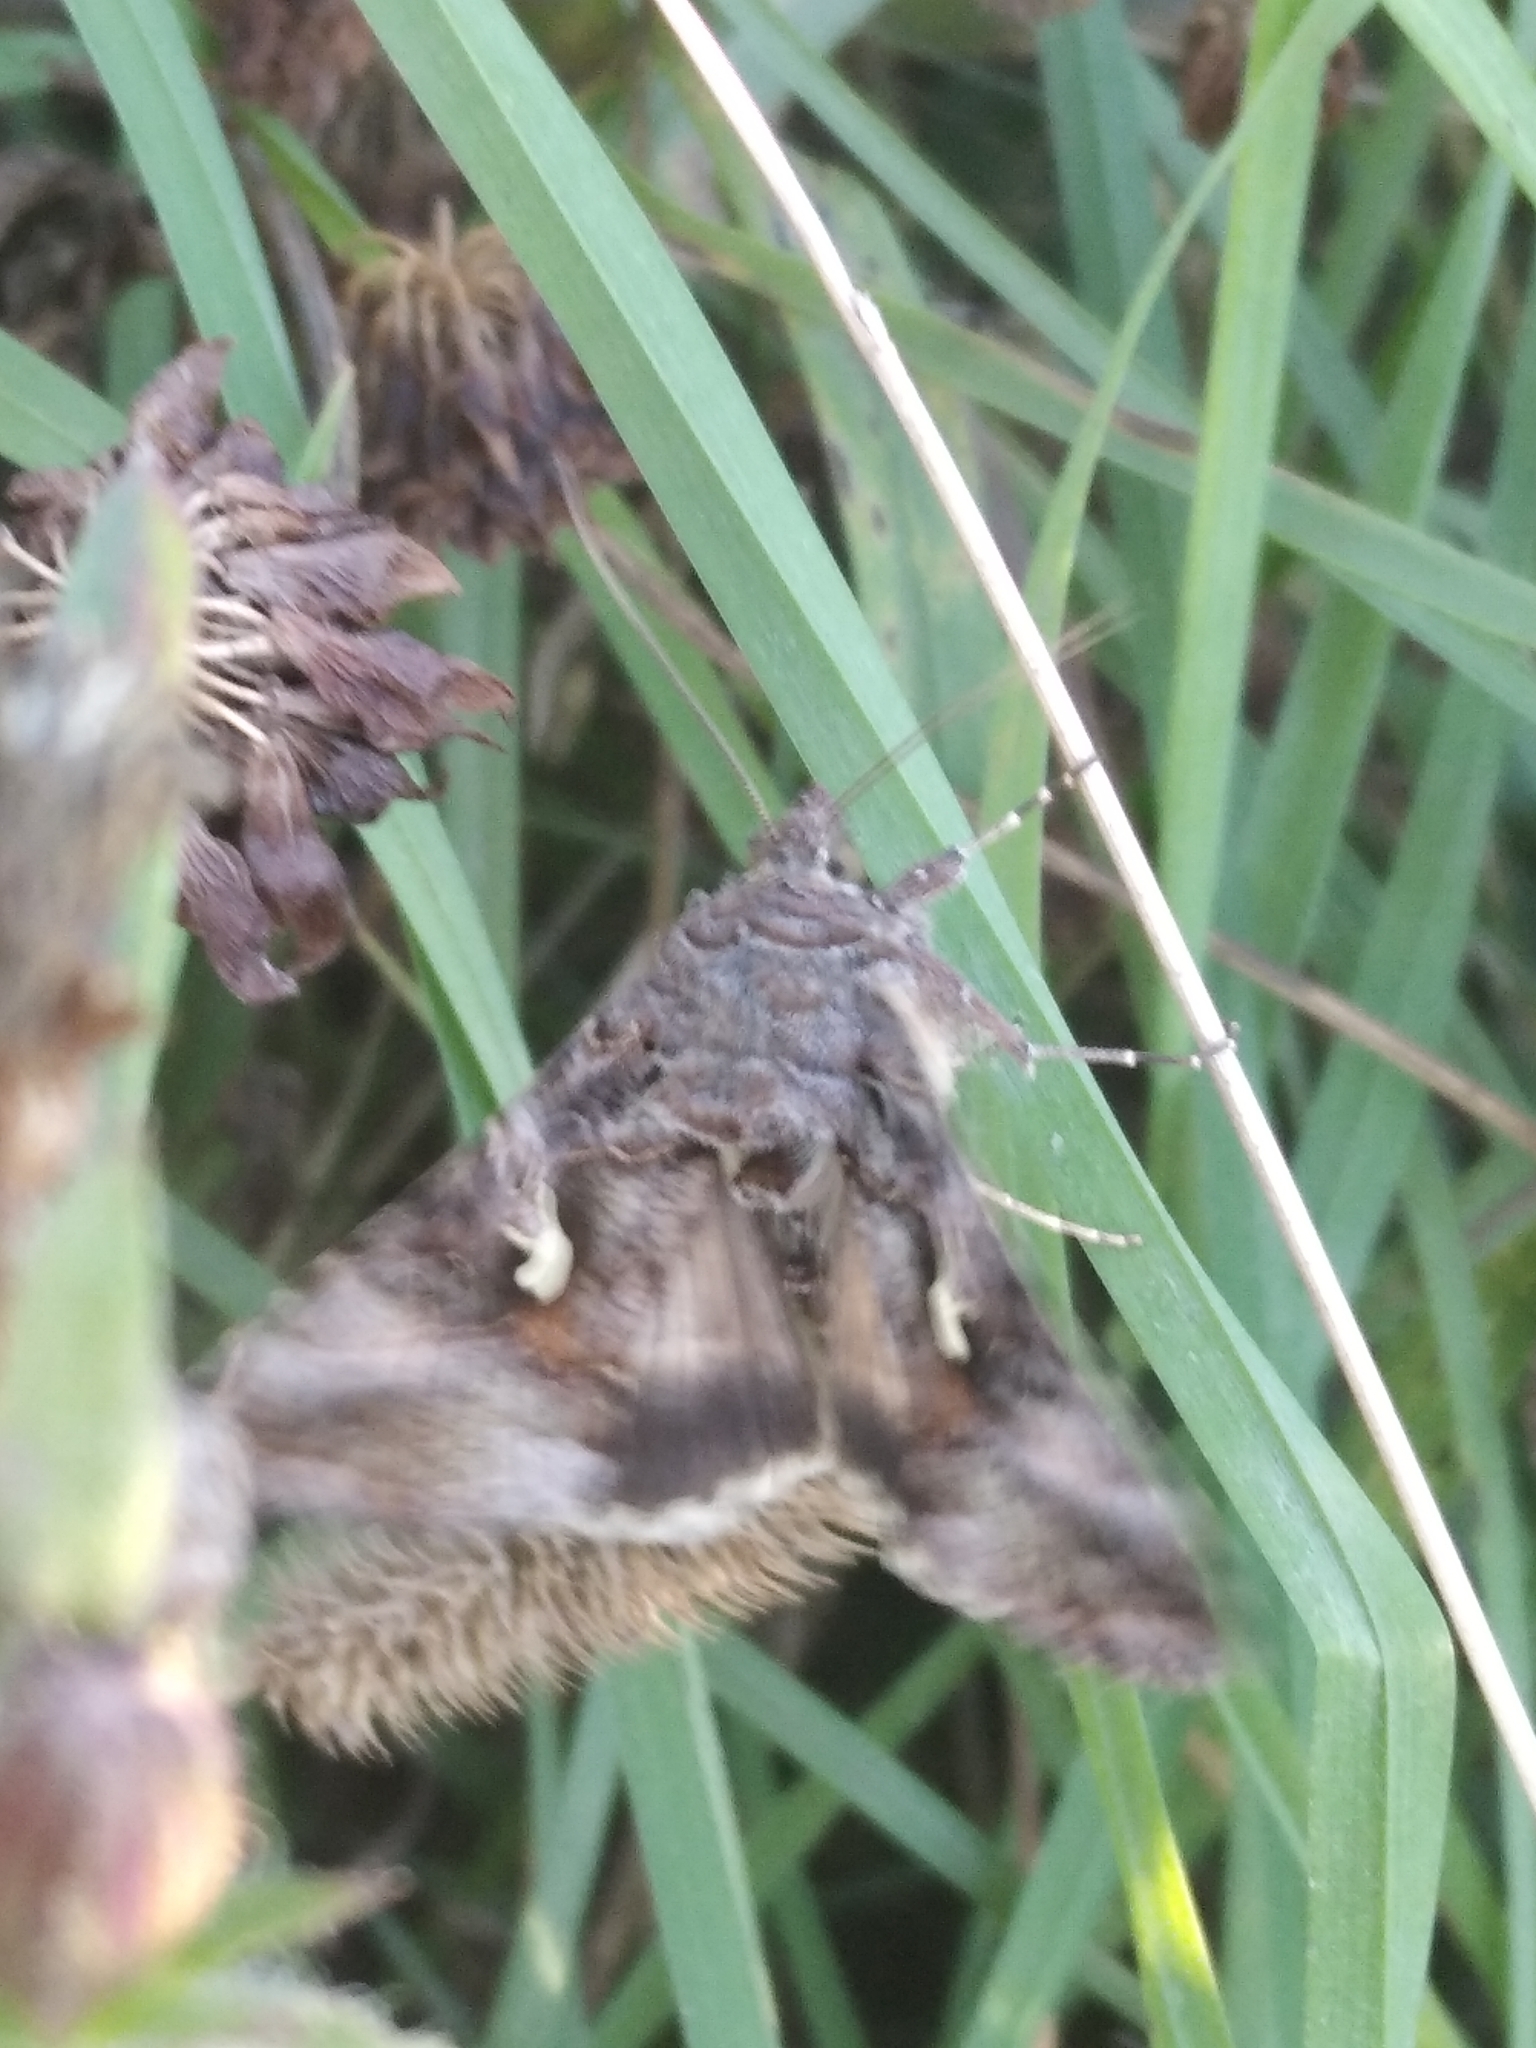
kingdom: Animalia
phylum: Arthropoda
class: Insecta
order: Lepidoptera
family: Noctuidae
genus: Autographa
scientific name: Autographa gamma
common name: Silver y
